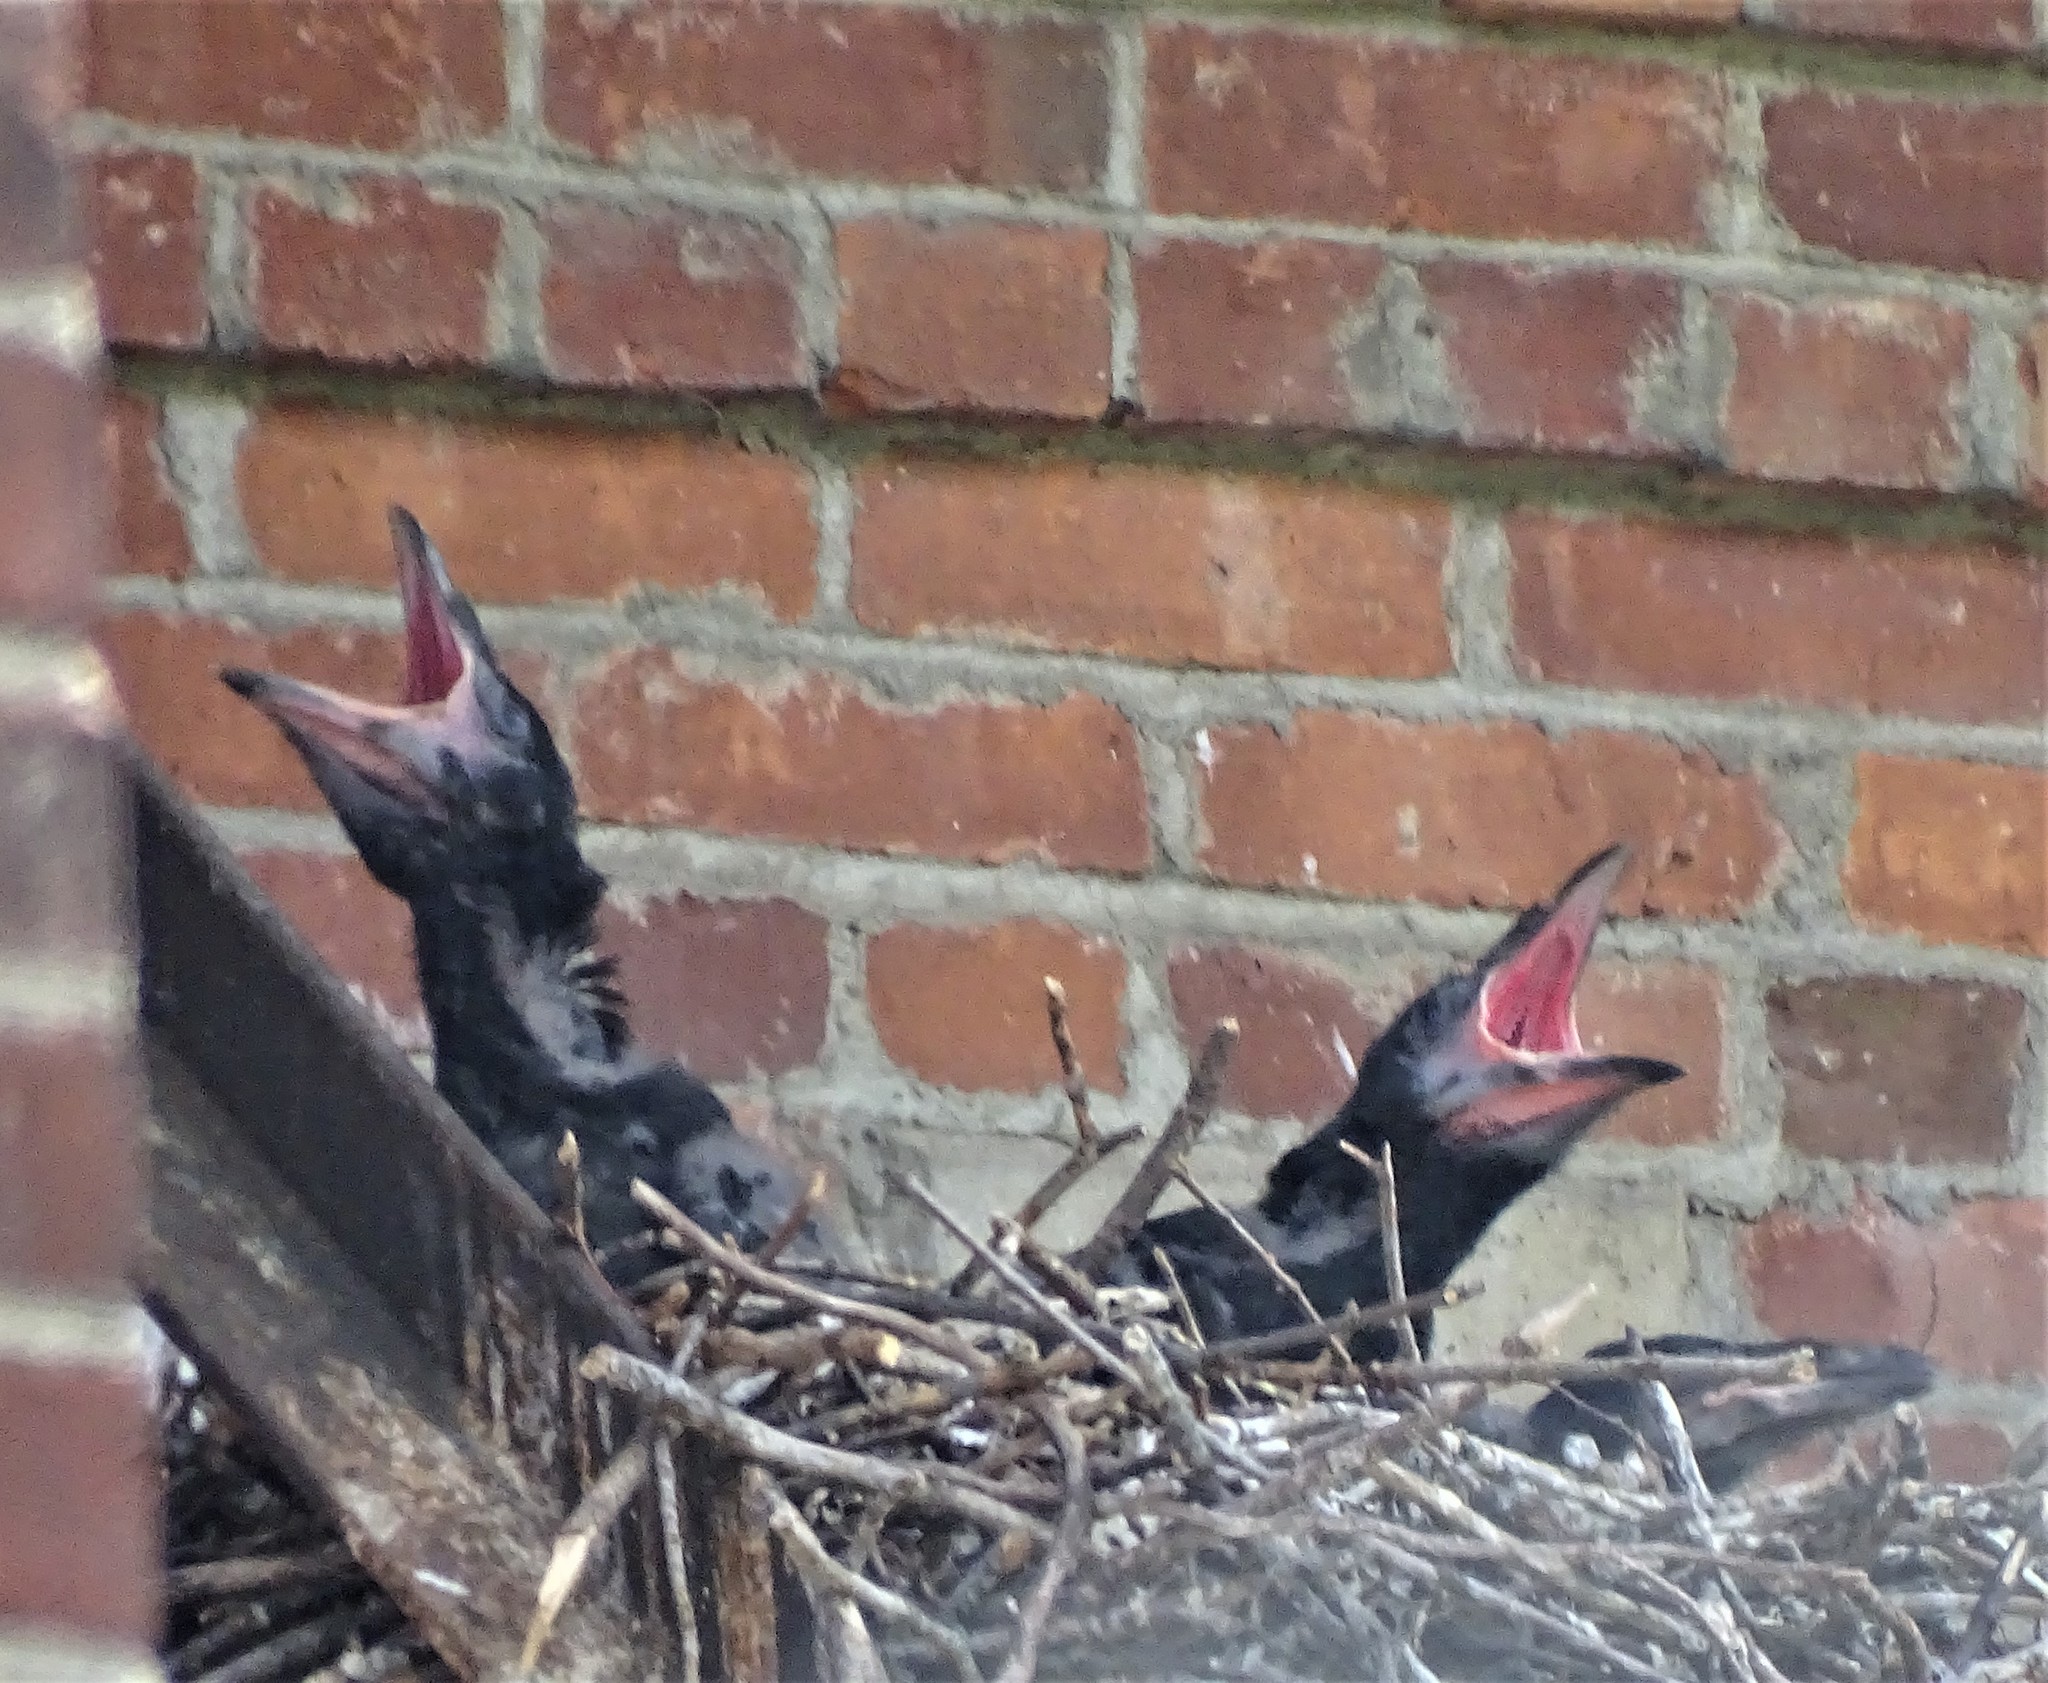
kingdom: Animalia
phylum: Chordata
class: Aves
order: Passeriformes
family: Corvidae
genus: Corvus
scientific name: Corvus corax
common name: Common raven
